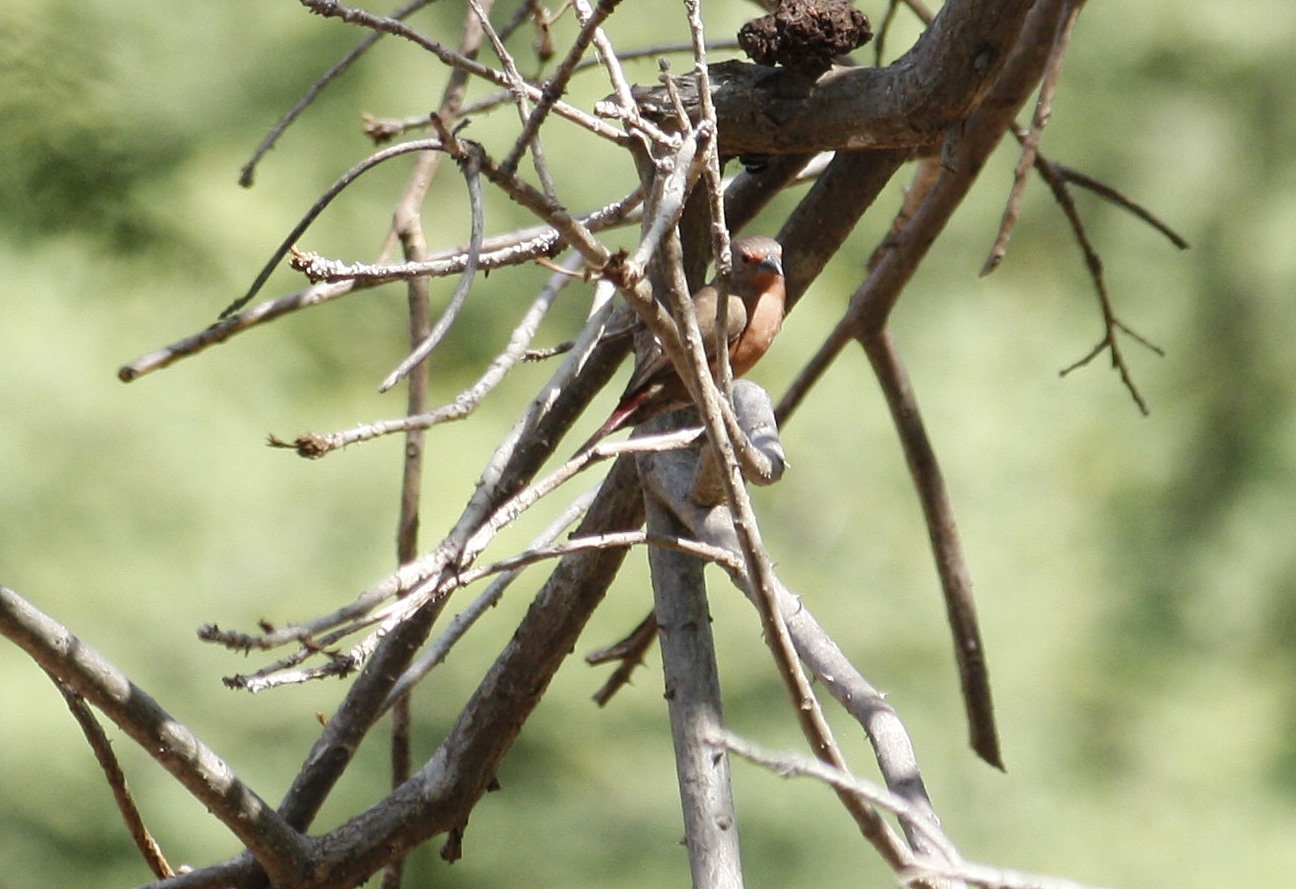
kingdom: Animalia
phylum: Chordata
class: Aves
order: Passeriformes
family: Estrildidae
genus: Lagonosticta
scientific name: Lagonosticta rhodopareia
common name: Jameson's firefinch
